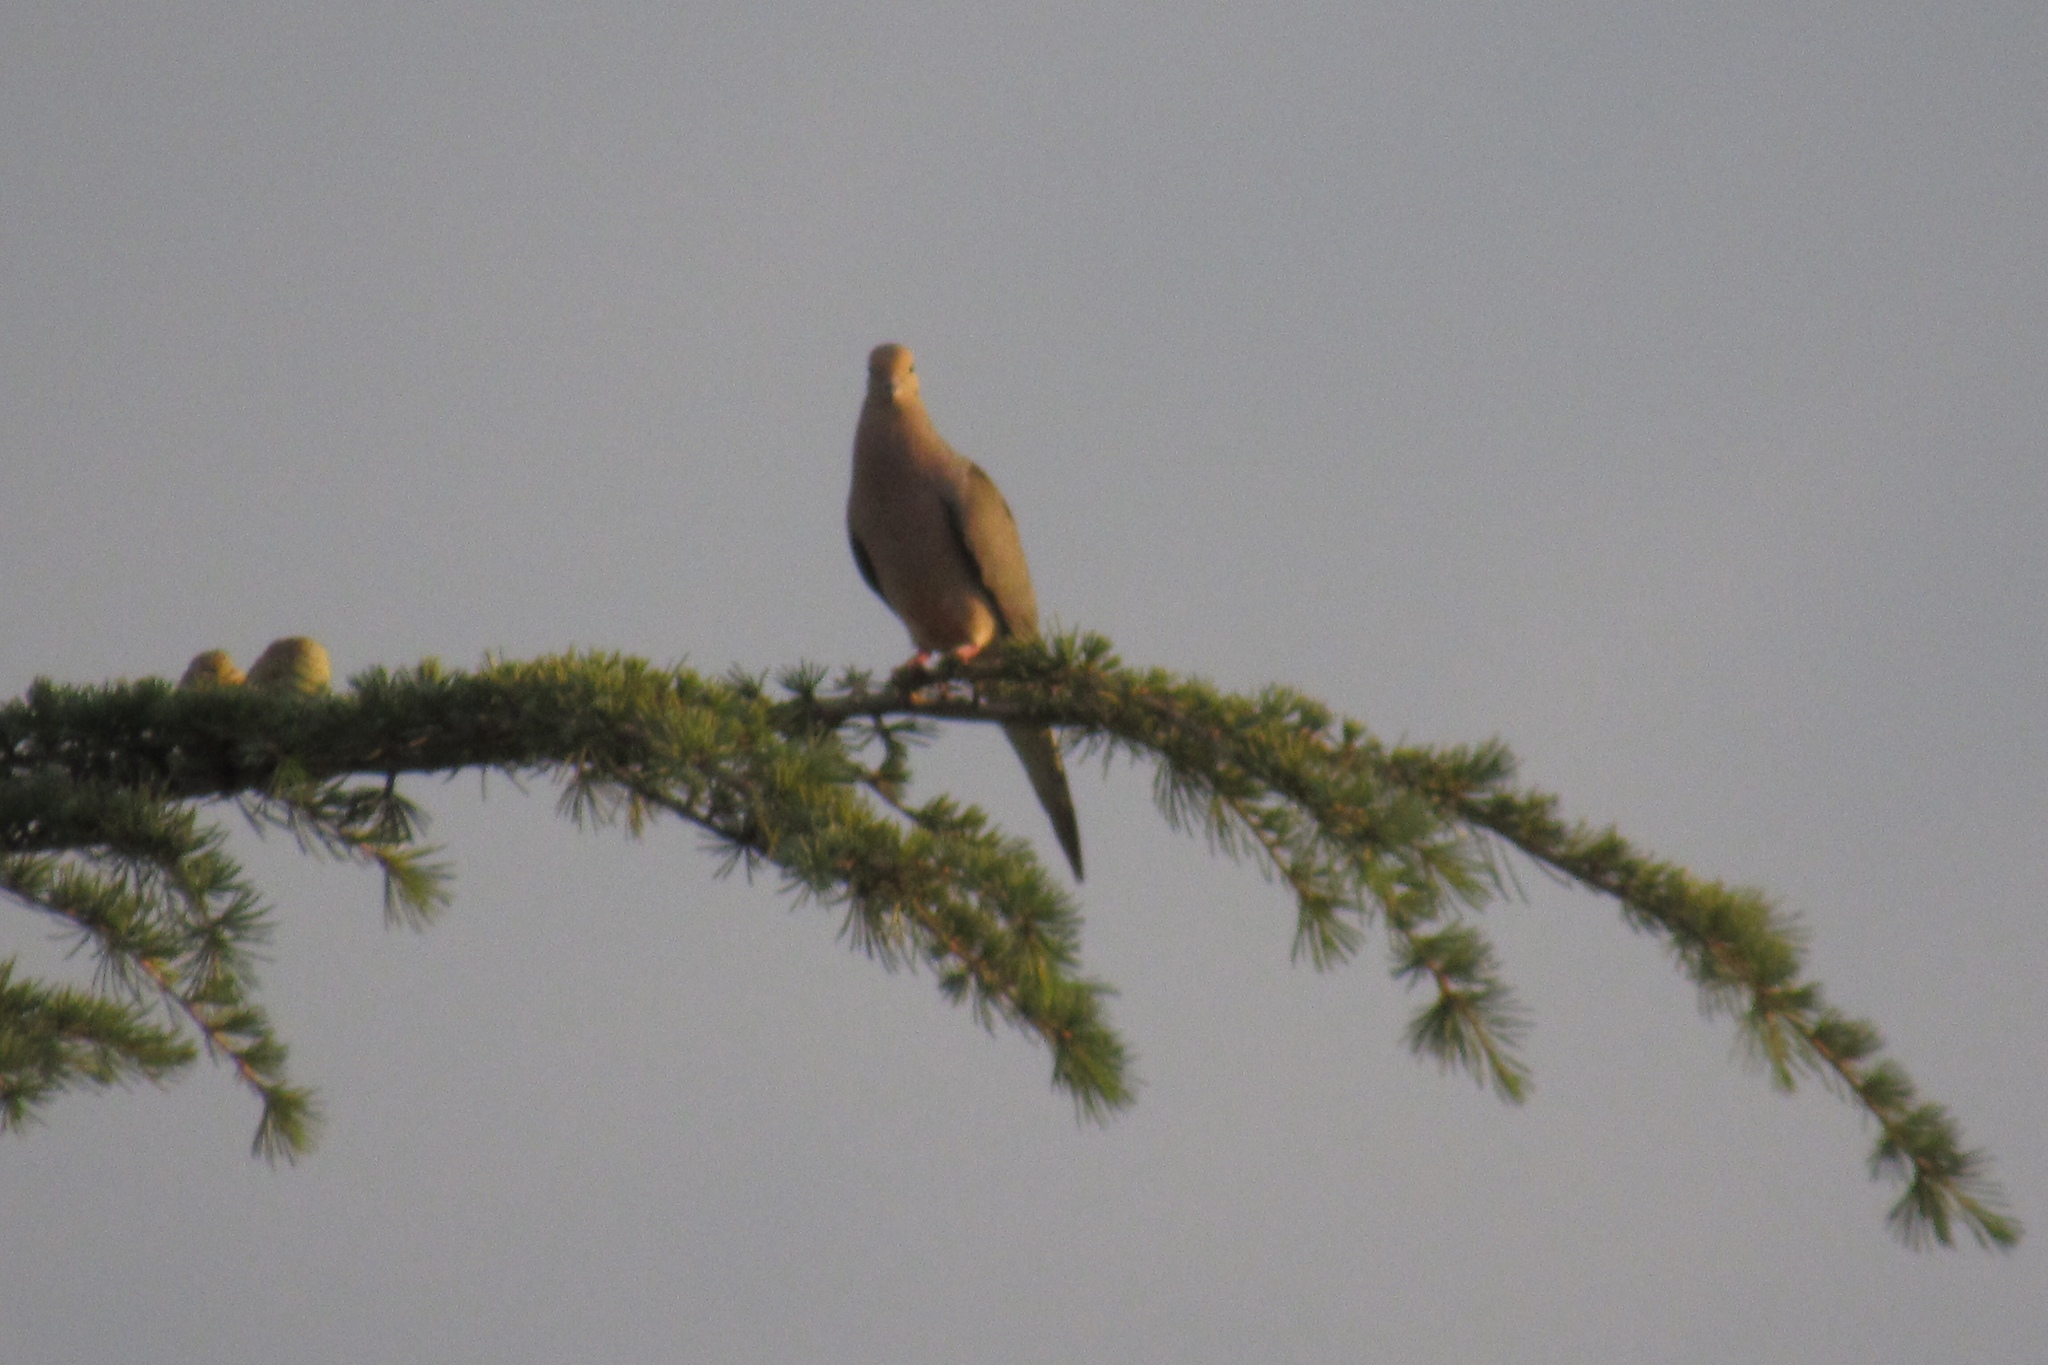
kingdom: Animalia
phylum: Chordata
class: Aves
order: Columbiformes
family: Columbidae
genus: Zenaida
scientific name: Zenaida macroura
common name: Mourning dove
